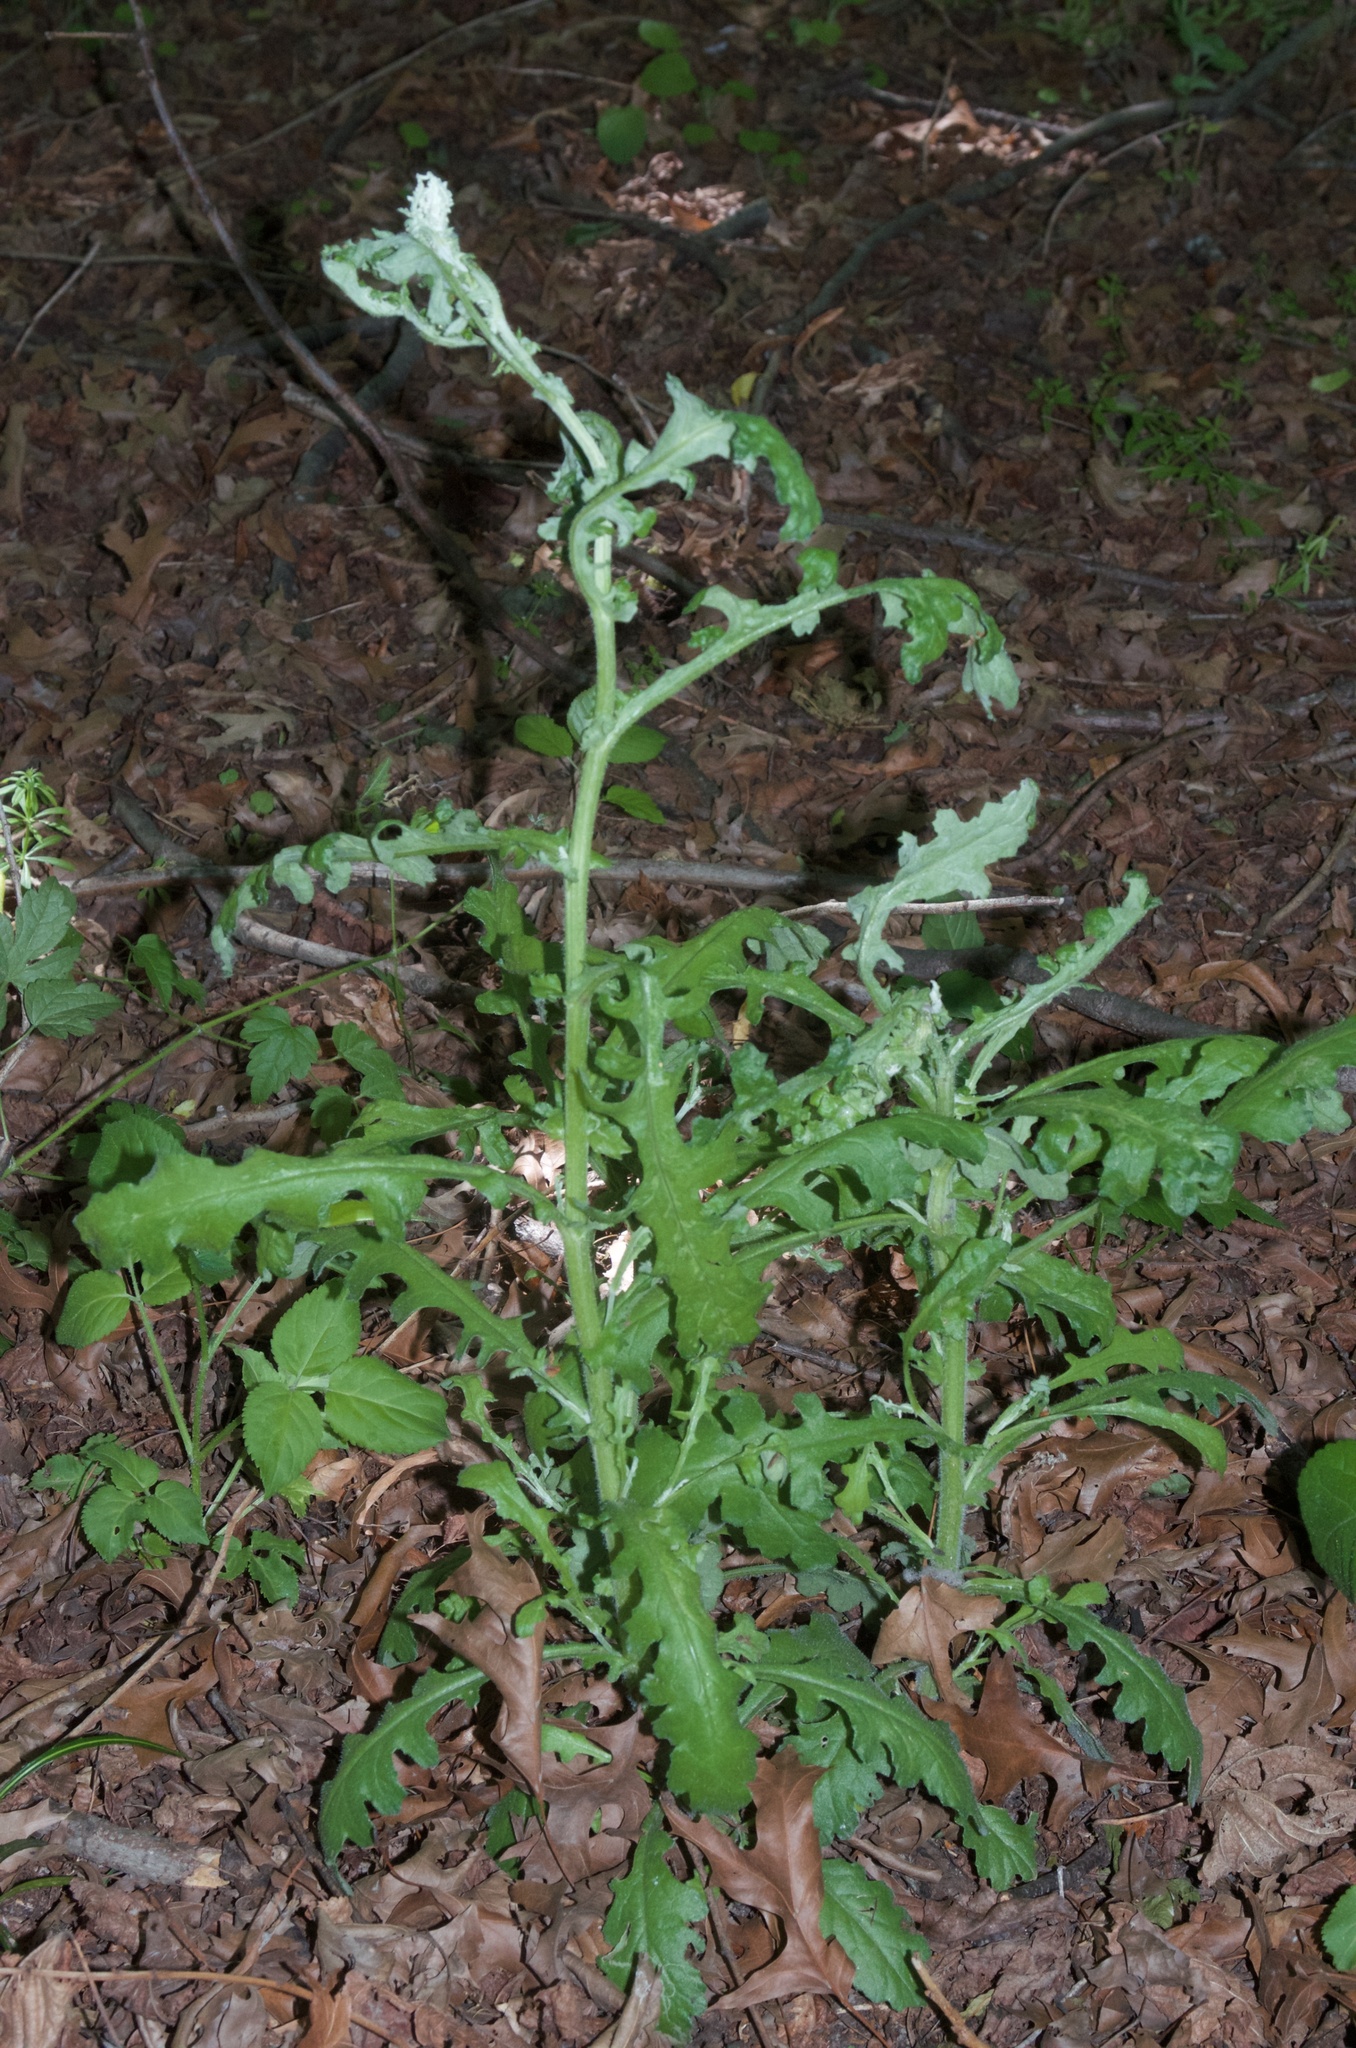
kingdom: Plantae
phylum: Tracheophyta
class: Magnoliopsida
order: Asterales
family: Asteraceae
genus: Senecio
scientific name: Senecio glomeratus
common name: Cutleaf burnweed
